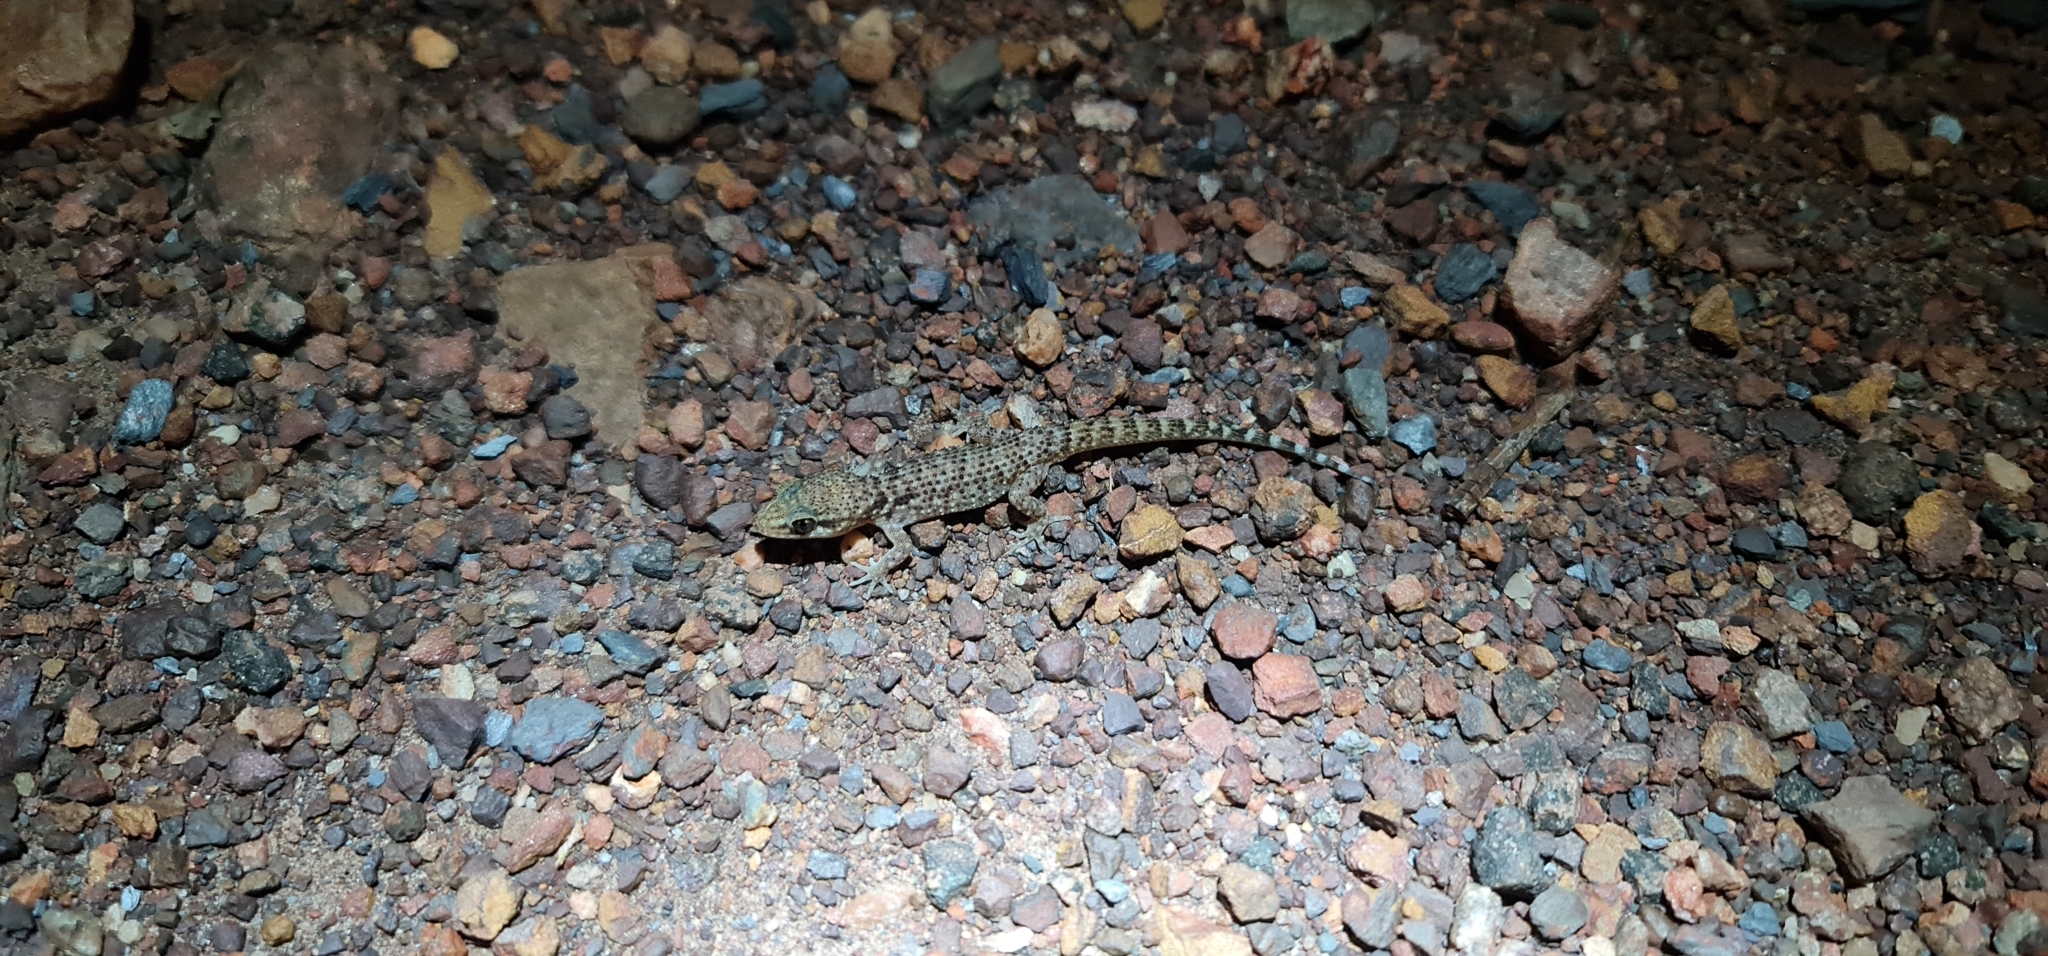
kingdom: Animalia
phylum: Chordata
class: Squamata
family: Gekkonidae
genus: Heteronotia
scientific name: Heteronotia binoei
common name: Bynoe's gecko
